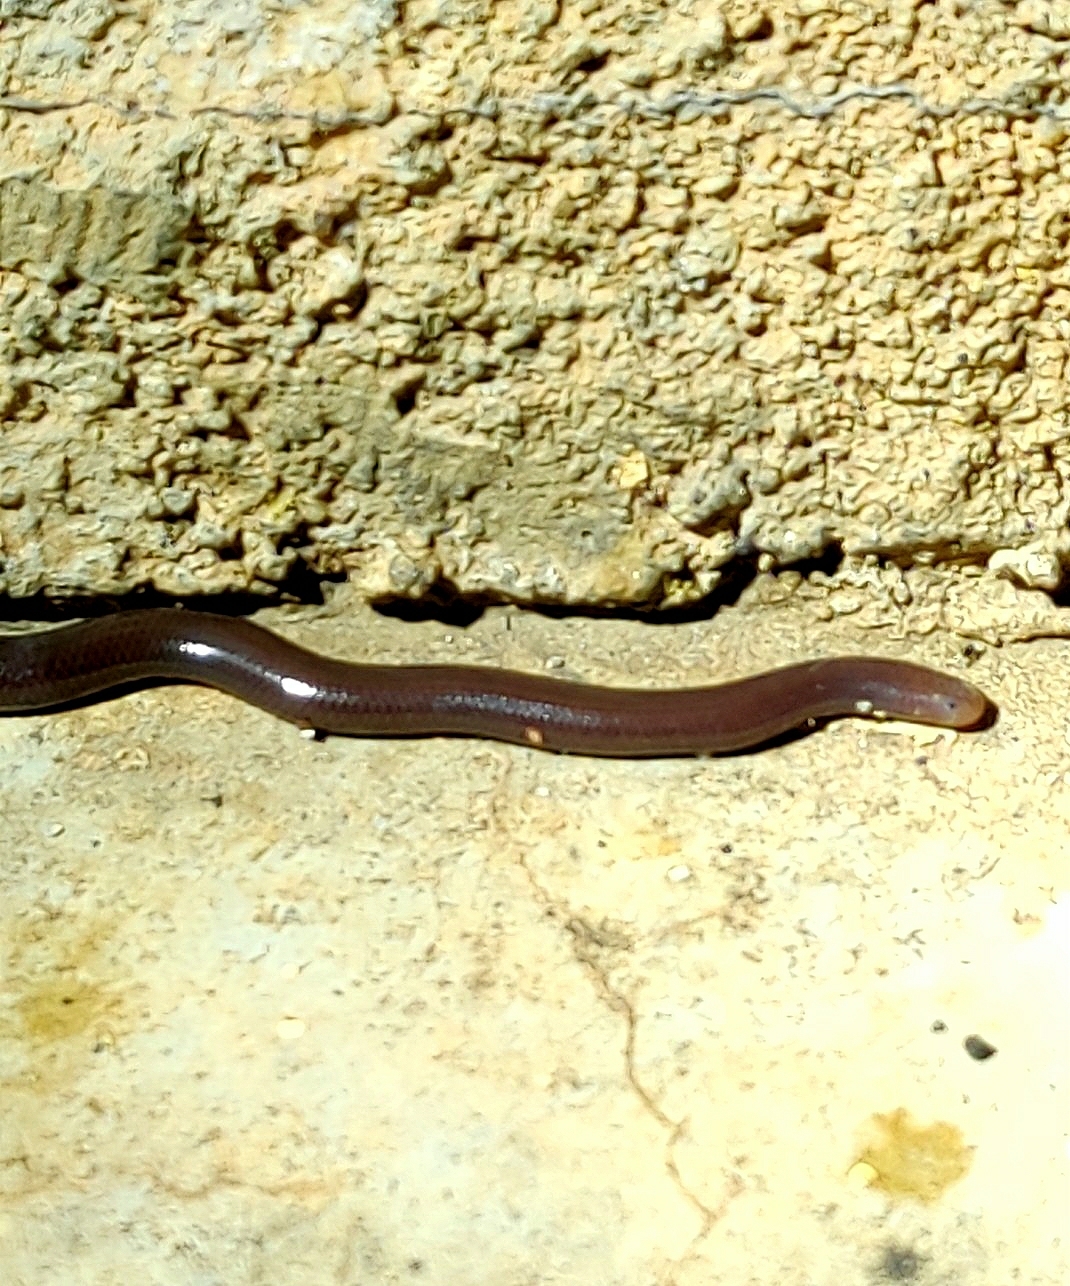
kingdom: Animalia
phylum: Chordata
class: Squamata
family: Typhlopidae
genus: Indotyphlops
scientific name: Indotyphlops braminus
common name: Brahminy blindsnake
